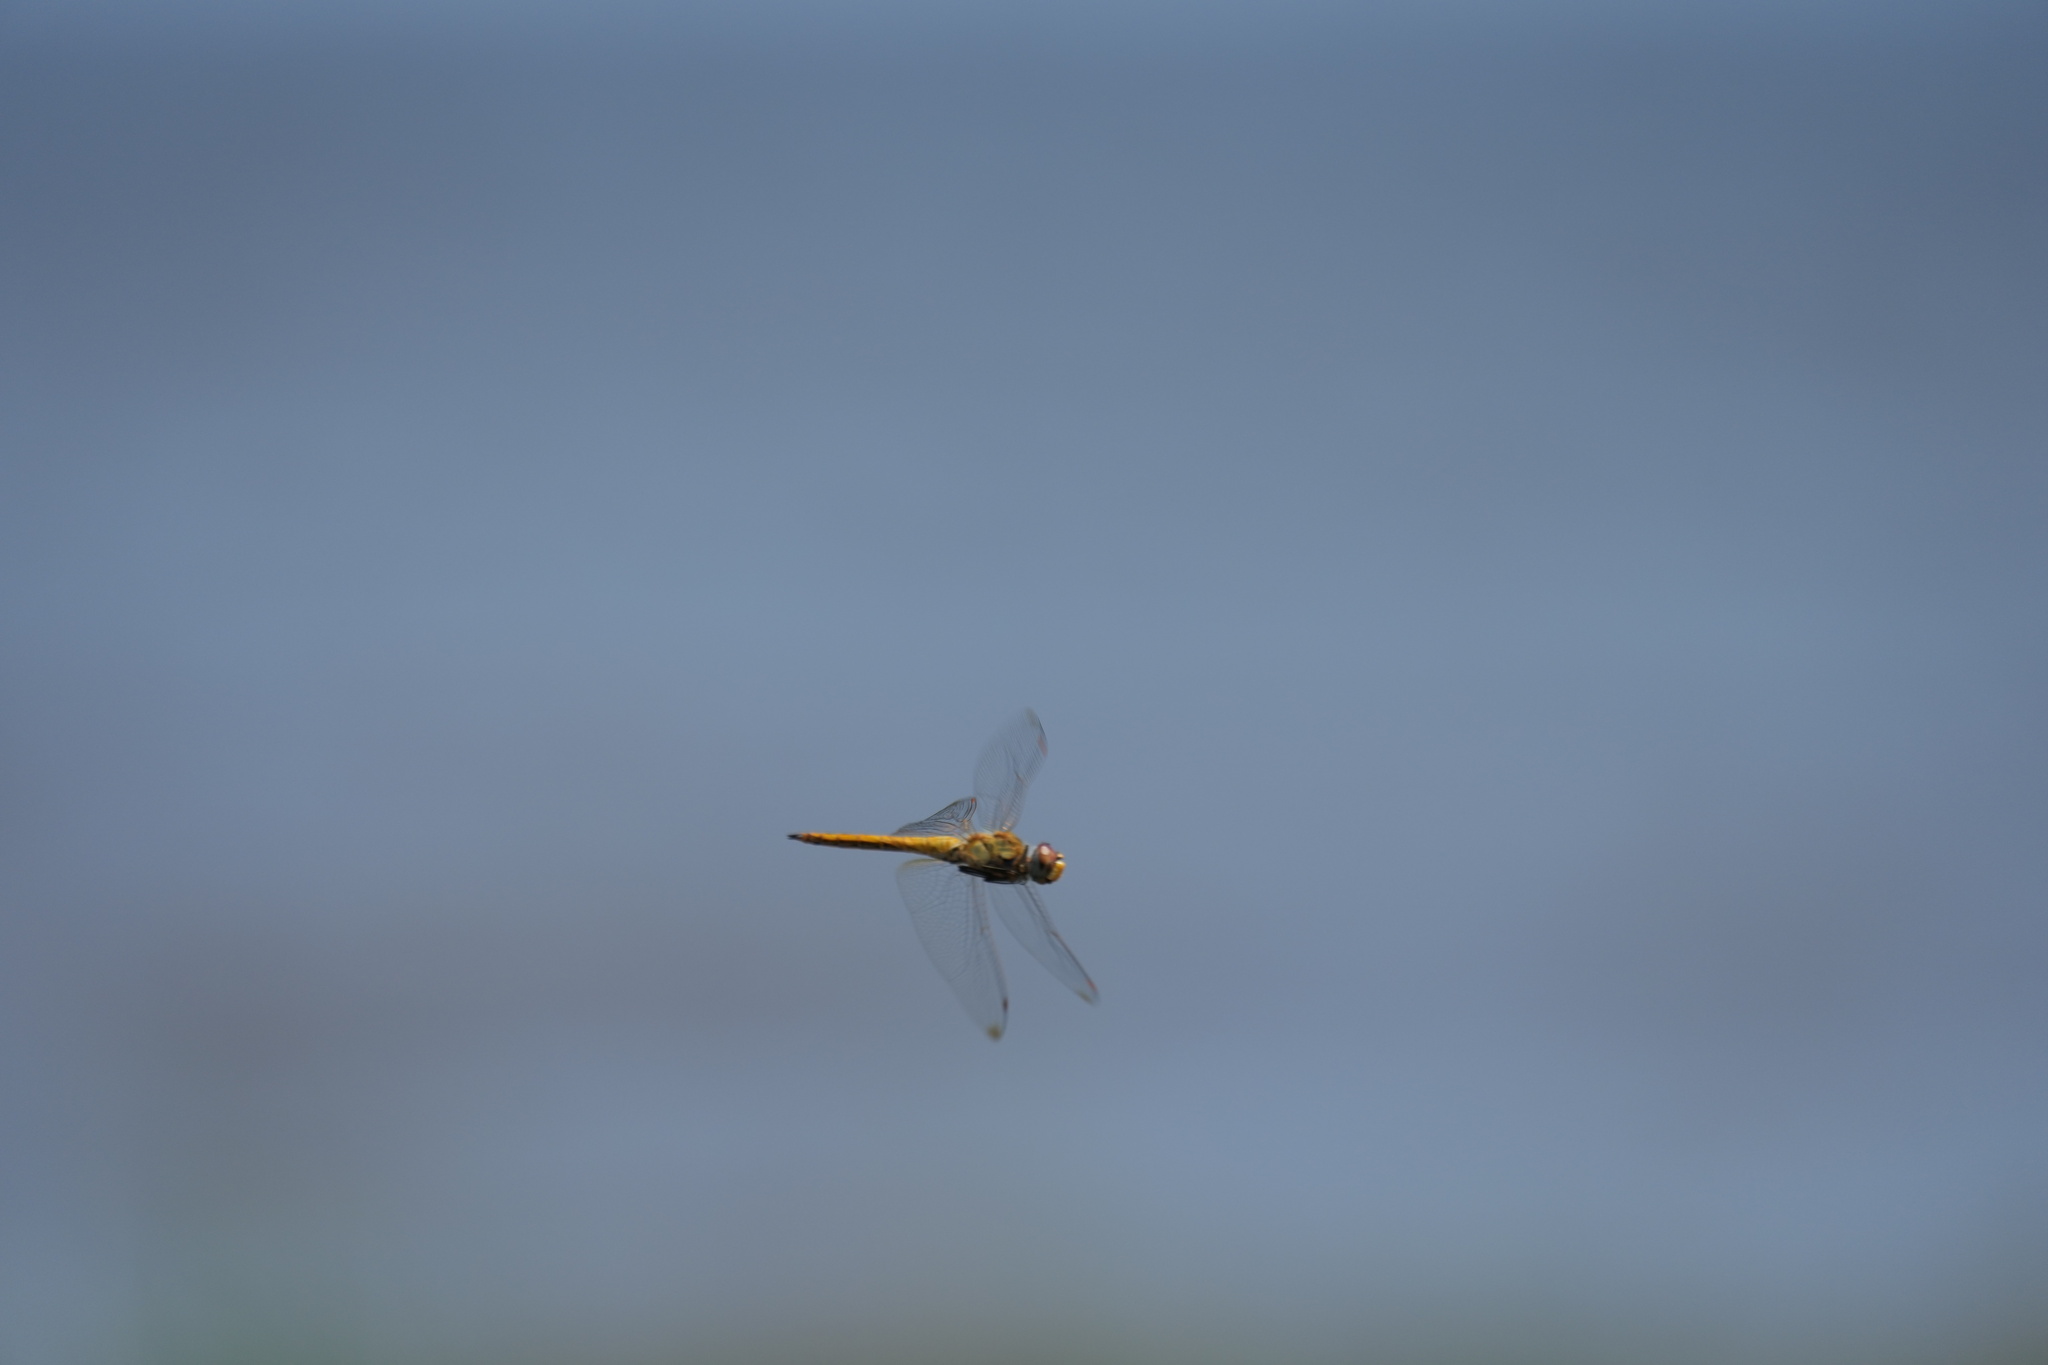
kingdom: Animalia
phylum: Arthropoda
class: Insecta
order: Odonata
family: Libellulidae
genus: Pantala
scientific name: Pantala flavescens
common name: Wandering glider
